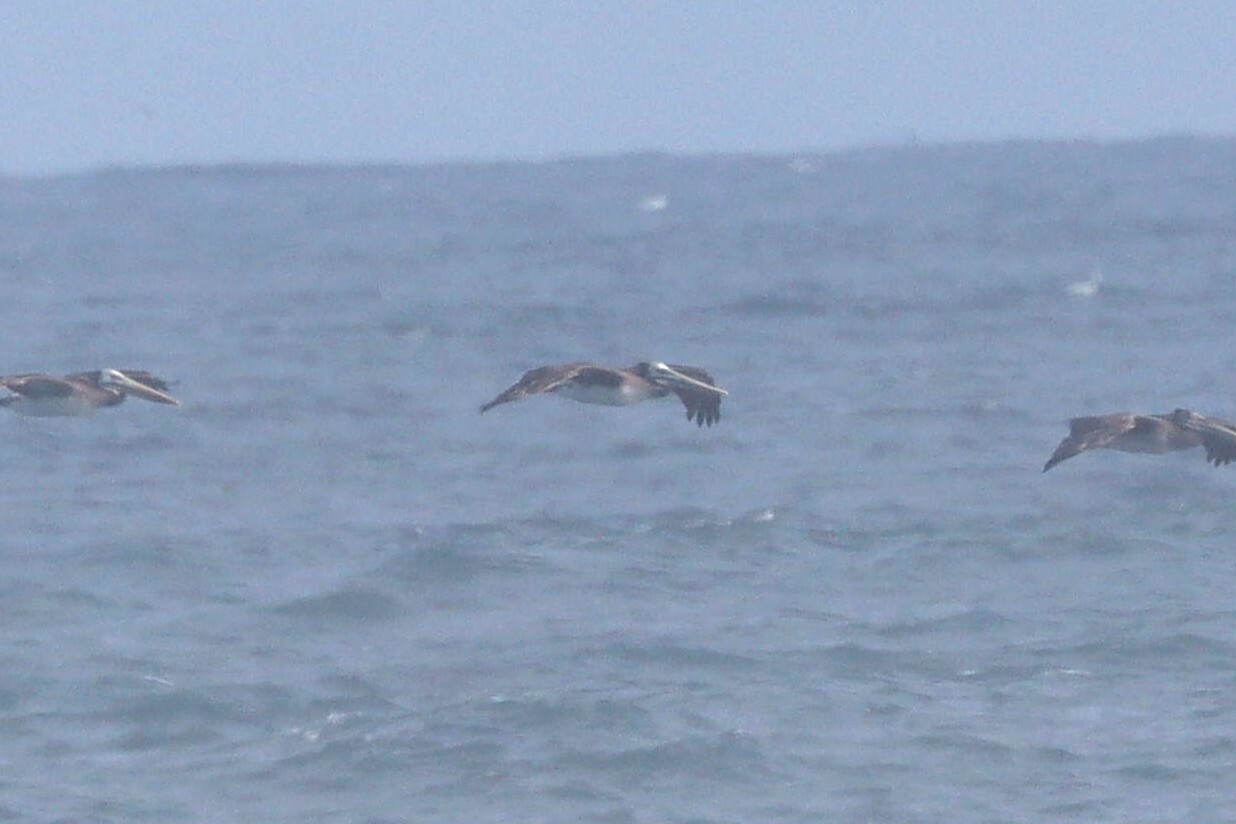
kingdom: Animalia
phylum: Chordata
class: Aves
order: Pelecaniformes
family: Pelecanidae
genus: Pelecanus
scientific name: Pelecanus thagus
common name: Peruvian pelican
